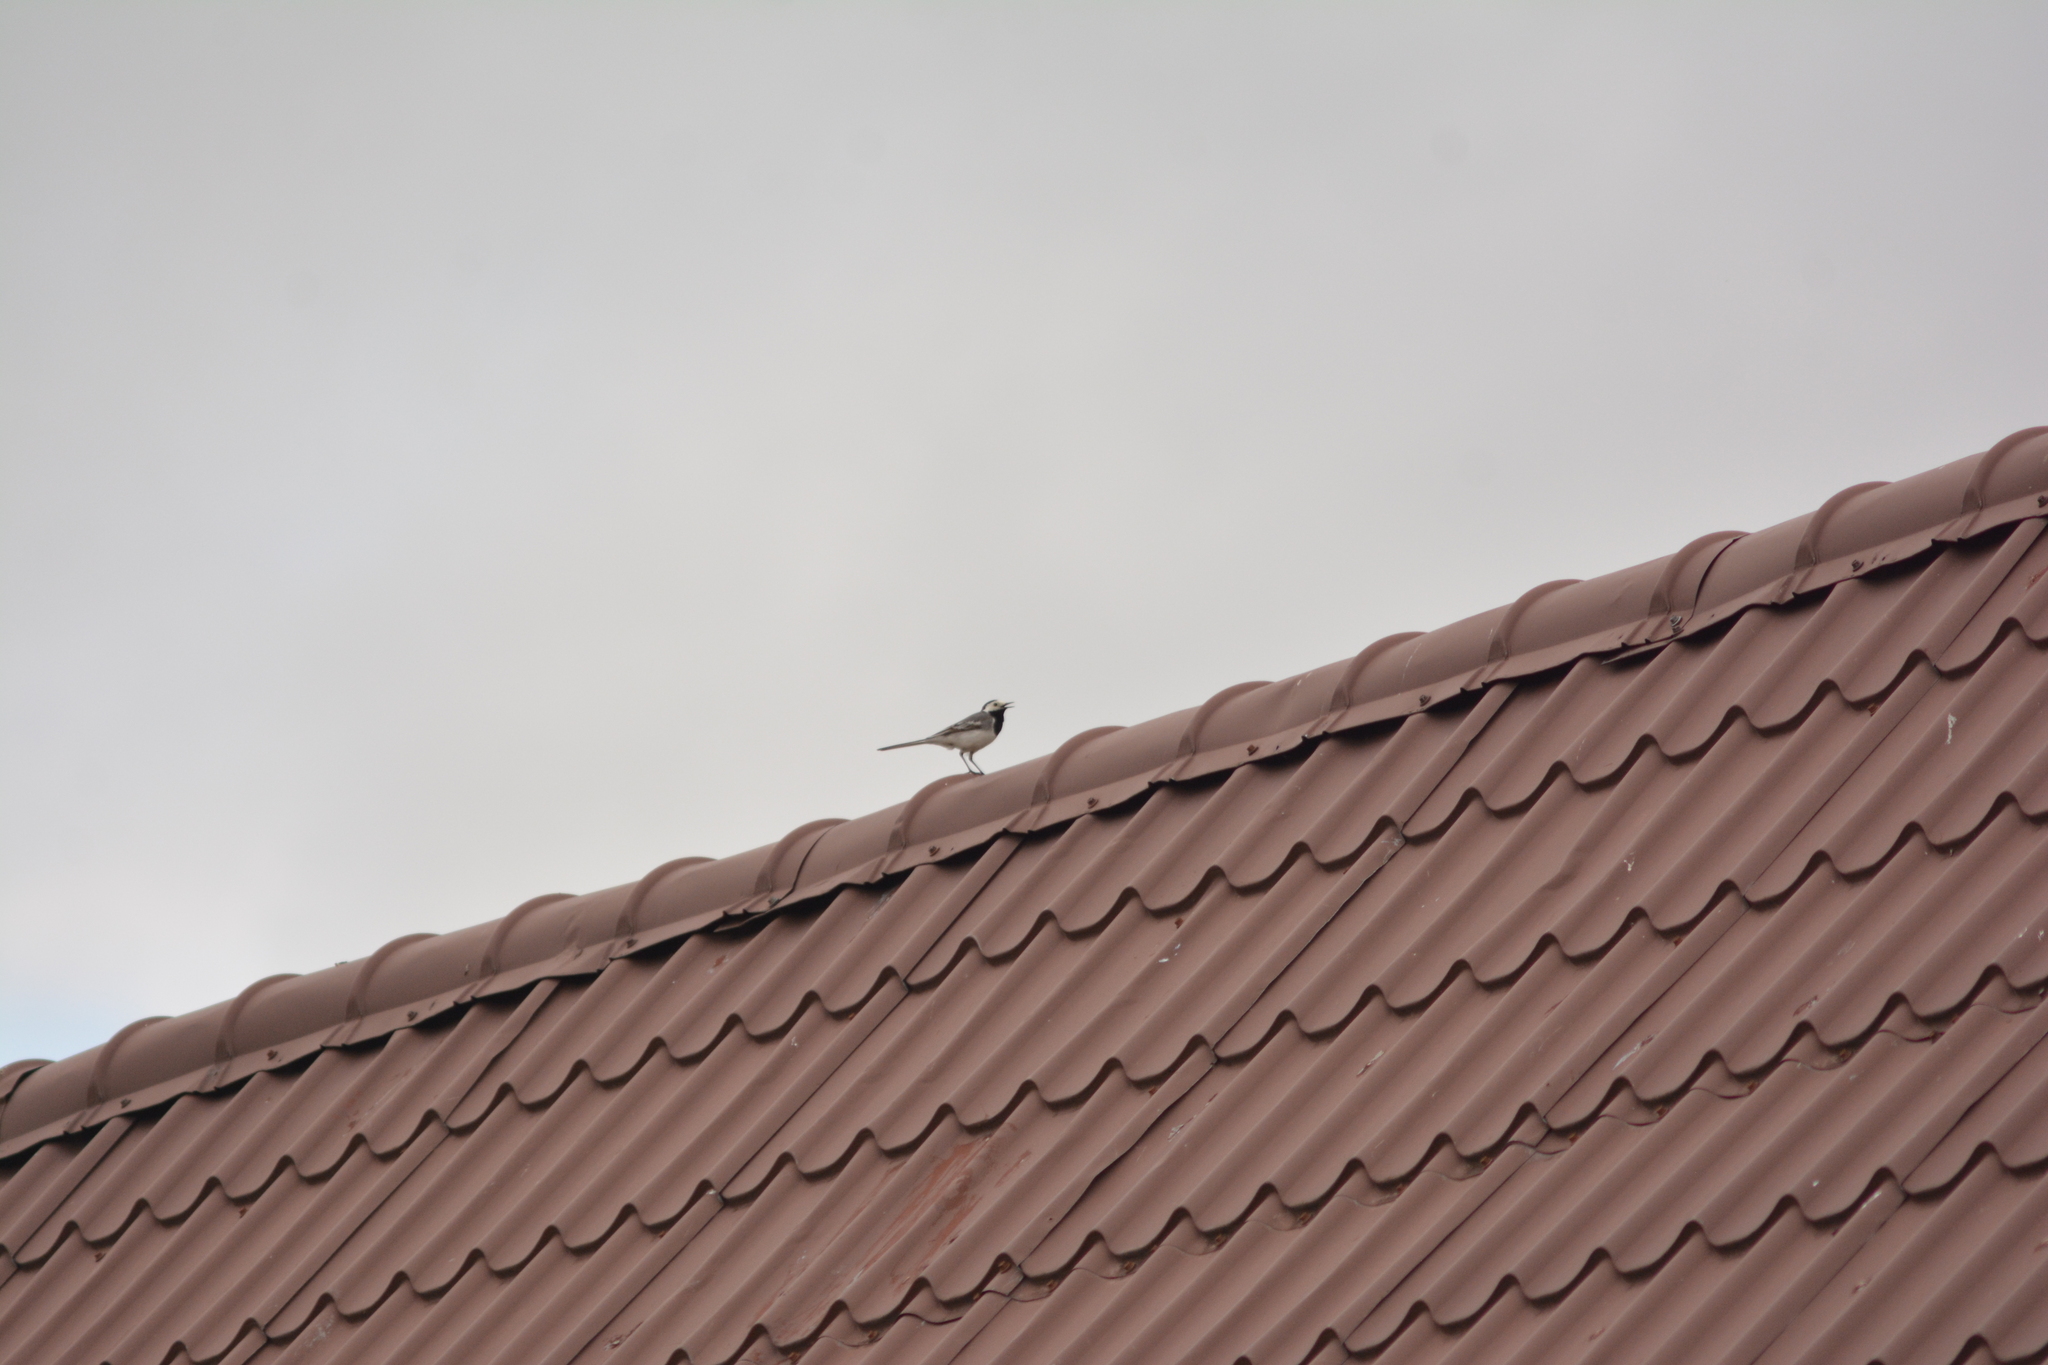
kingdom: Animalia
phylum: Chordata
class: Aves
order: Passeriformes
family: Motacillidae
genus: Motacilla
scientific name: Motacilla alba
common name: White wagtail
